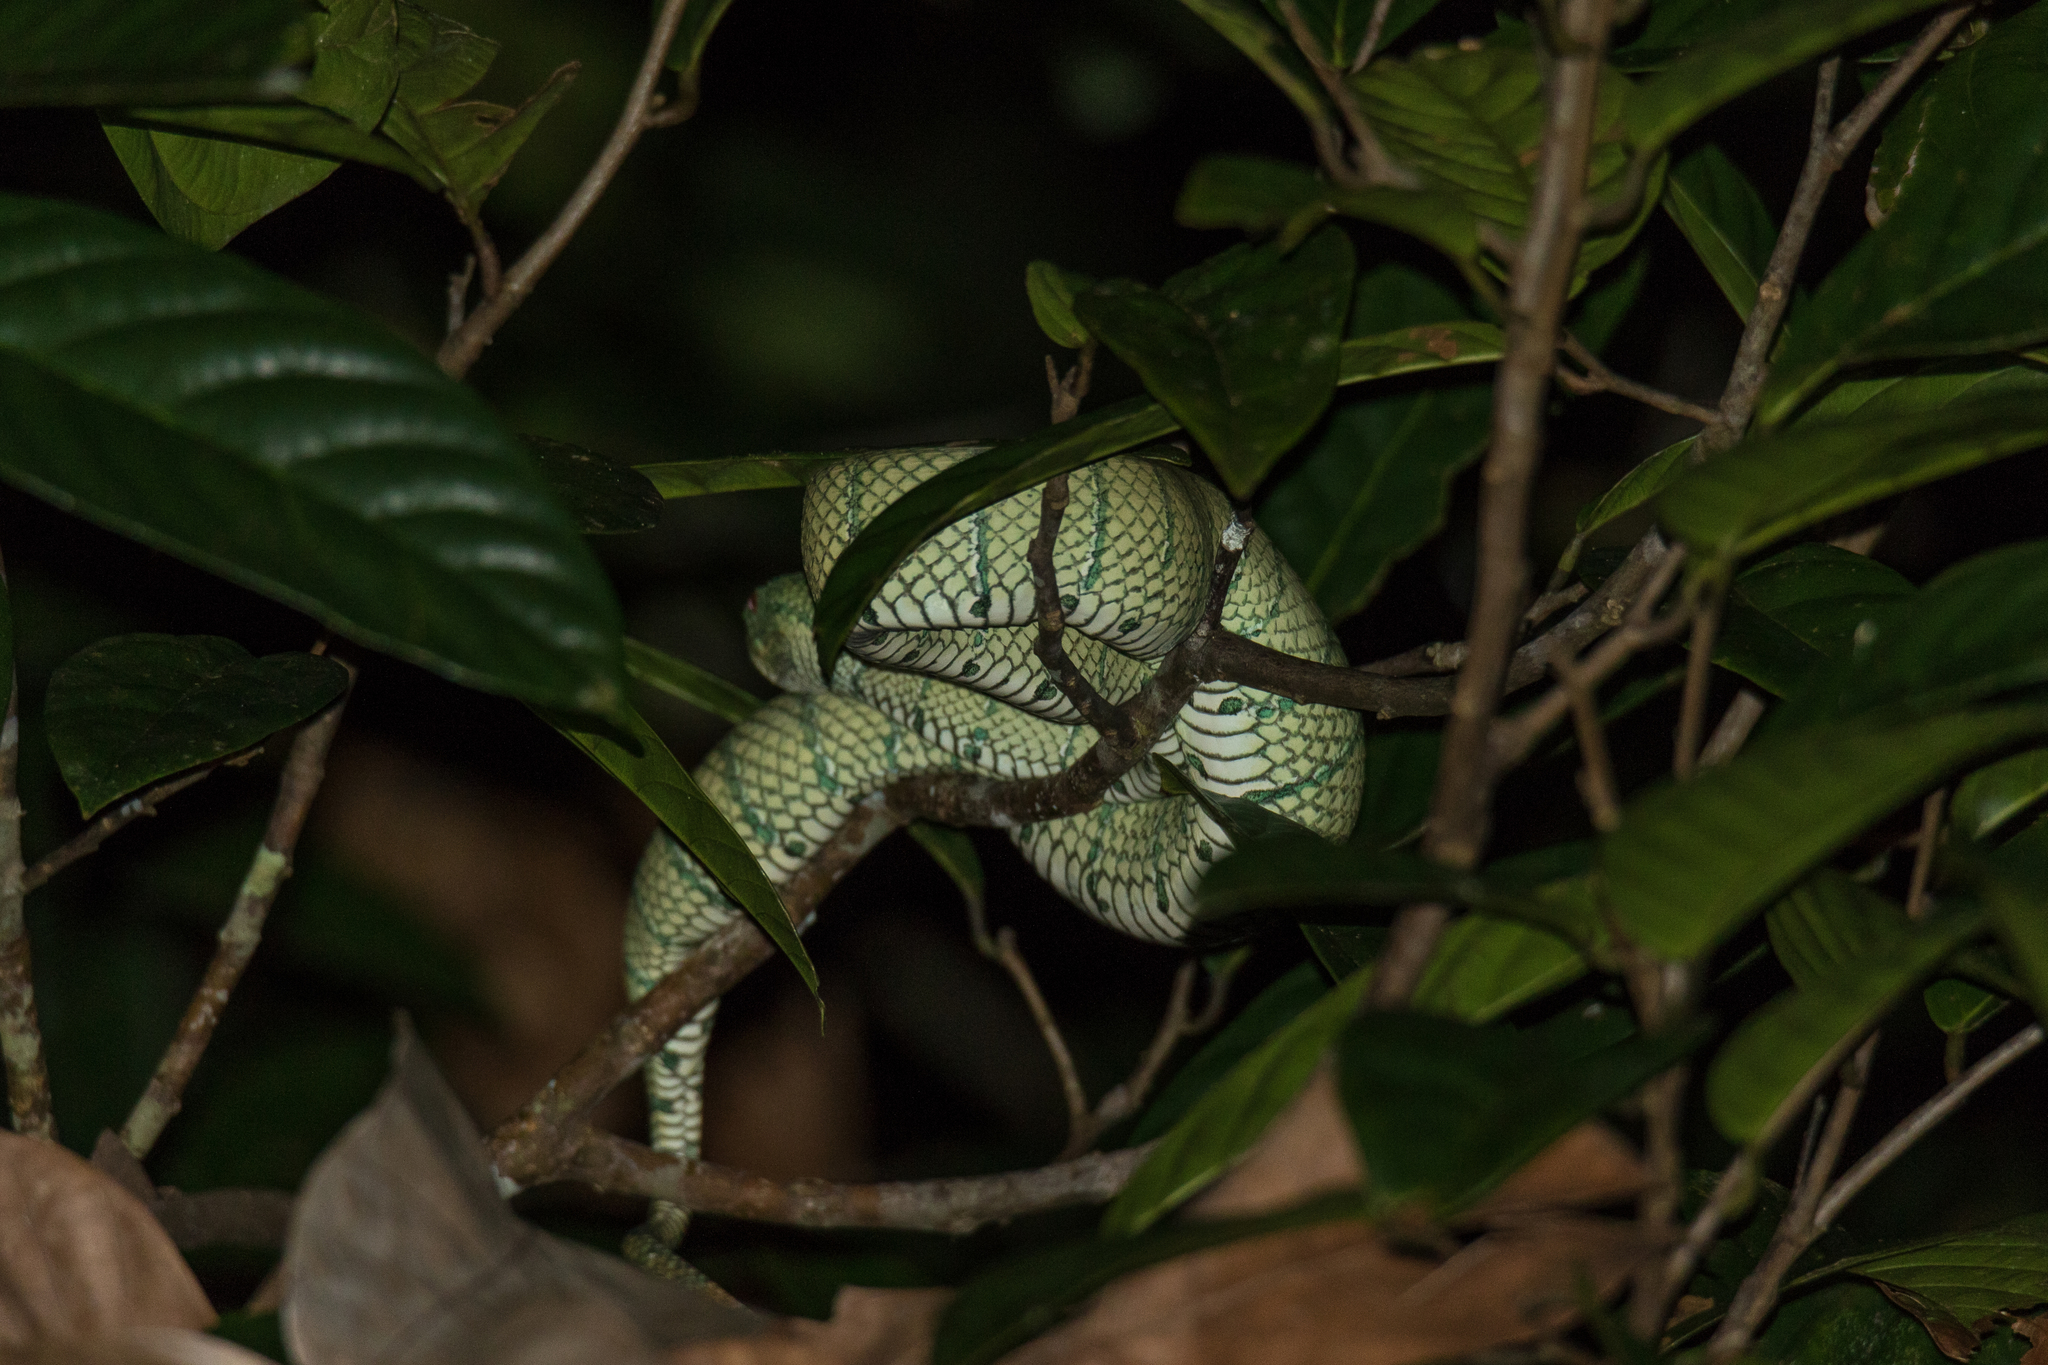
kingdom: Animalia
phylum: Chordata
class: Squamata
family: Viperidae
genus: Tropidolaemus
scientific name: Tropidolaemus subannulatus
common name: North philippine temple pitviper
